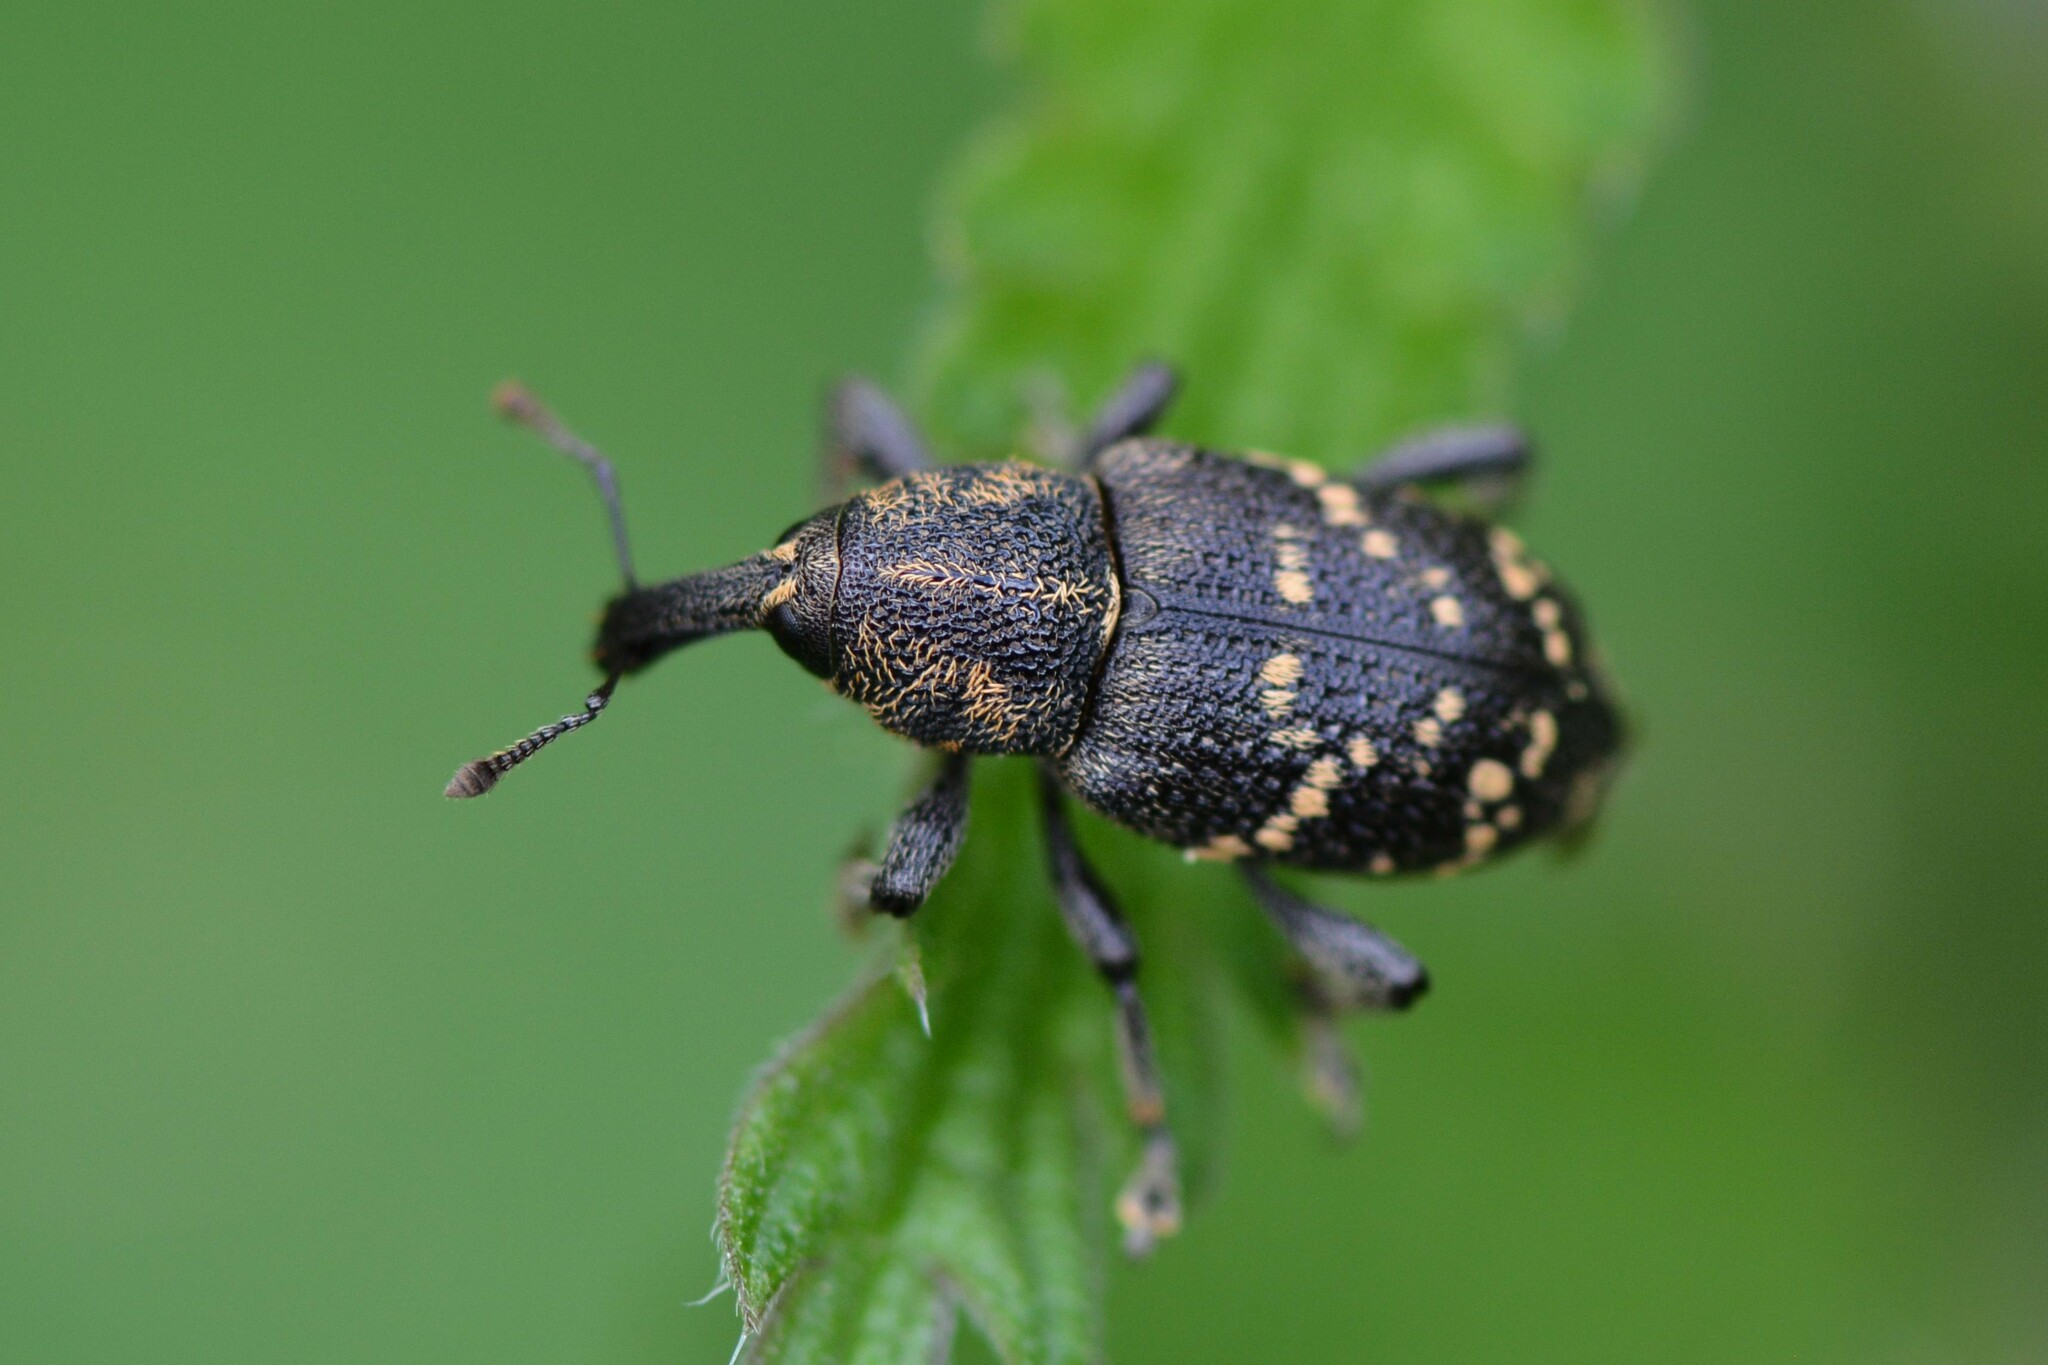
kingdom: Animalia
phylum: Arthropoda
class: Insecta
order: Coleoptera
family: Curculionidae
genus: Hylobius
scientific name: Hylobius abietis
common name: Large pine weevil
